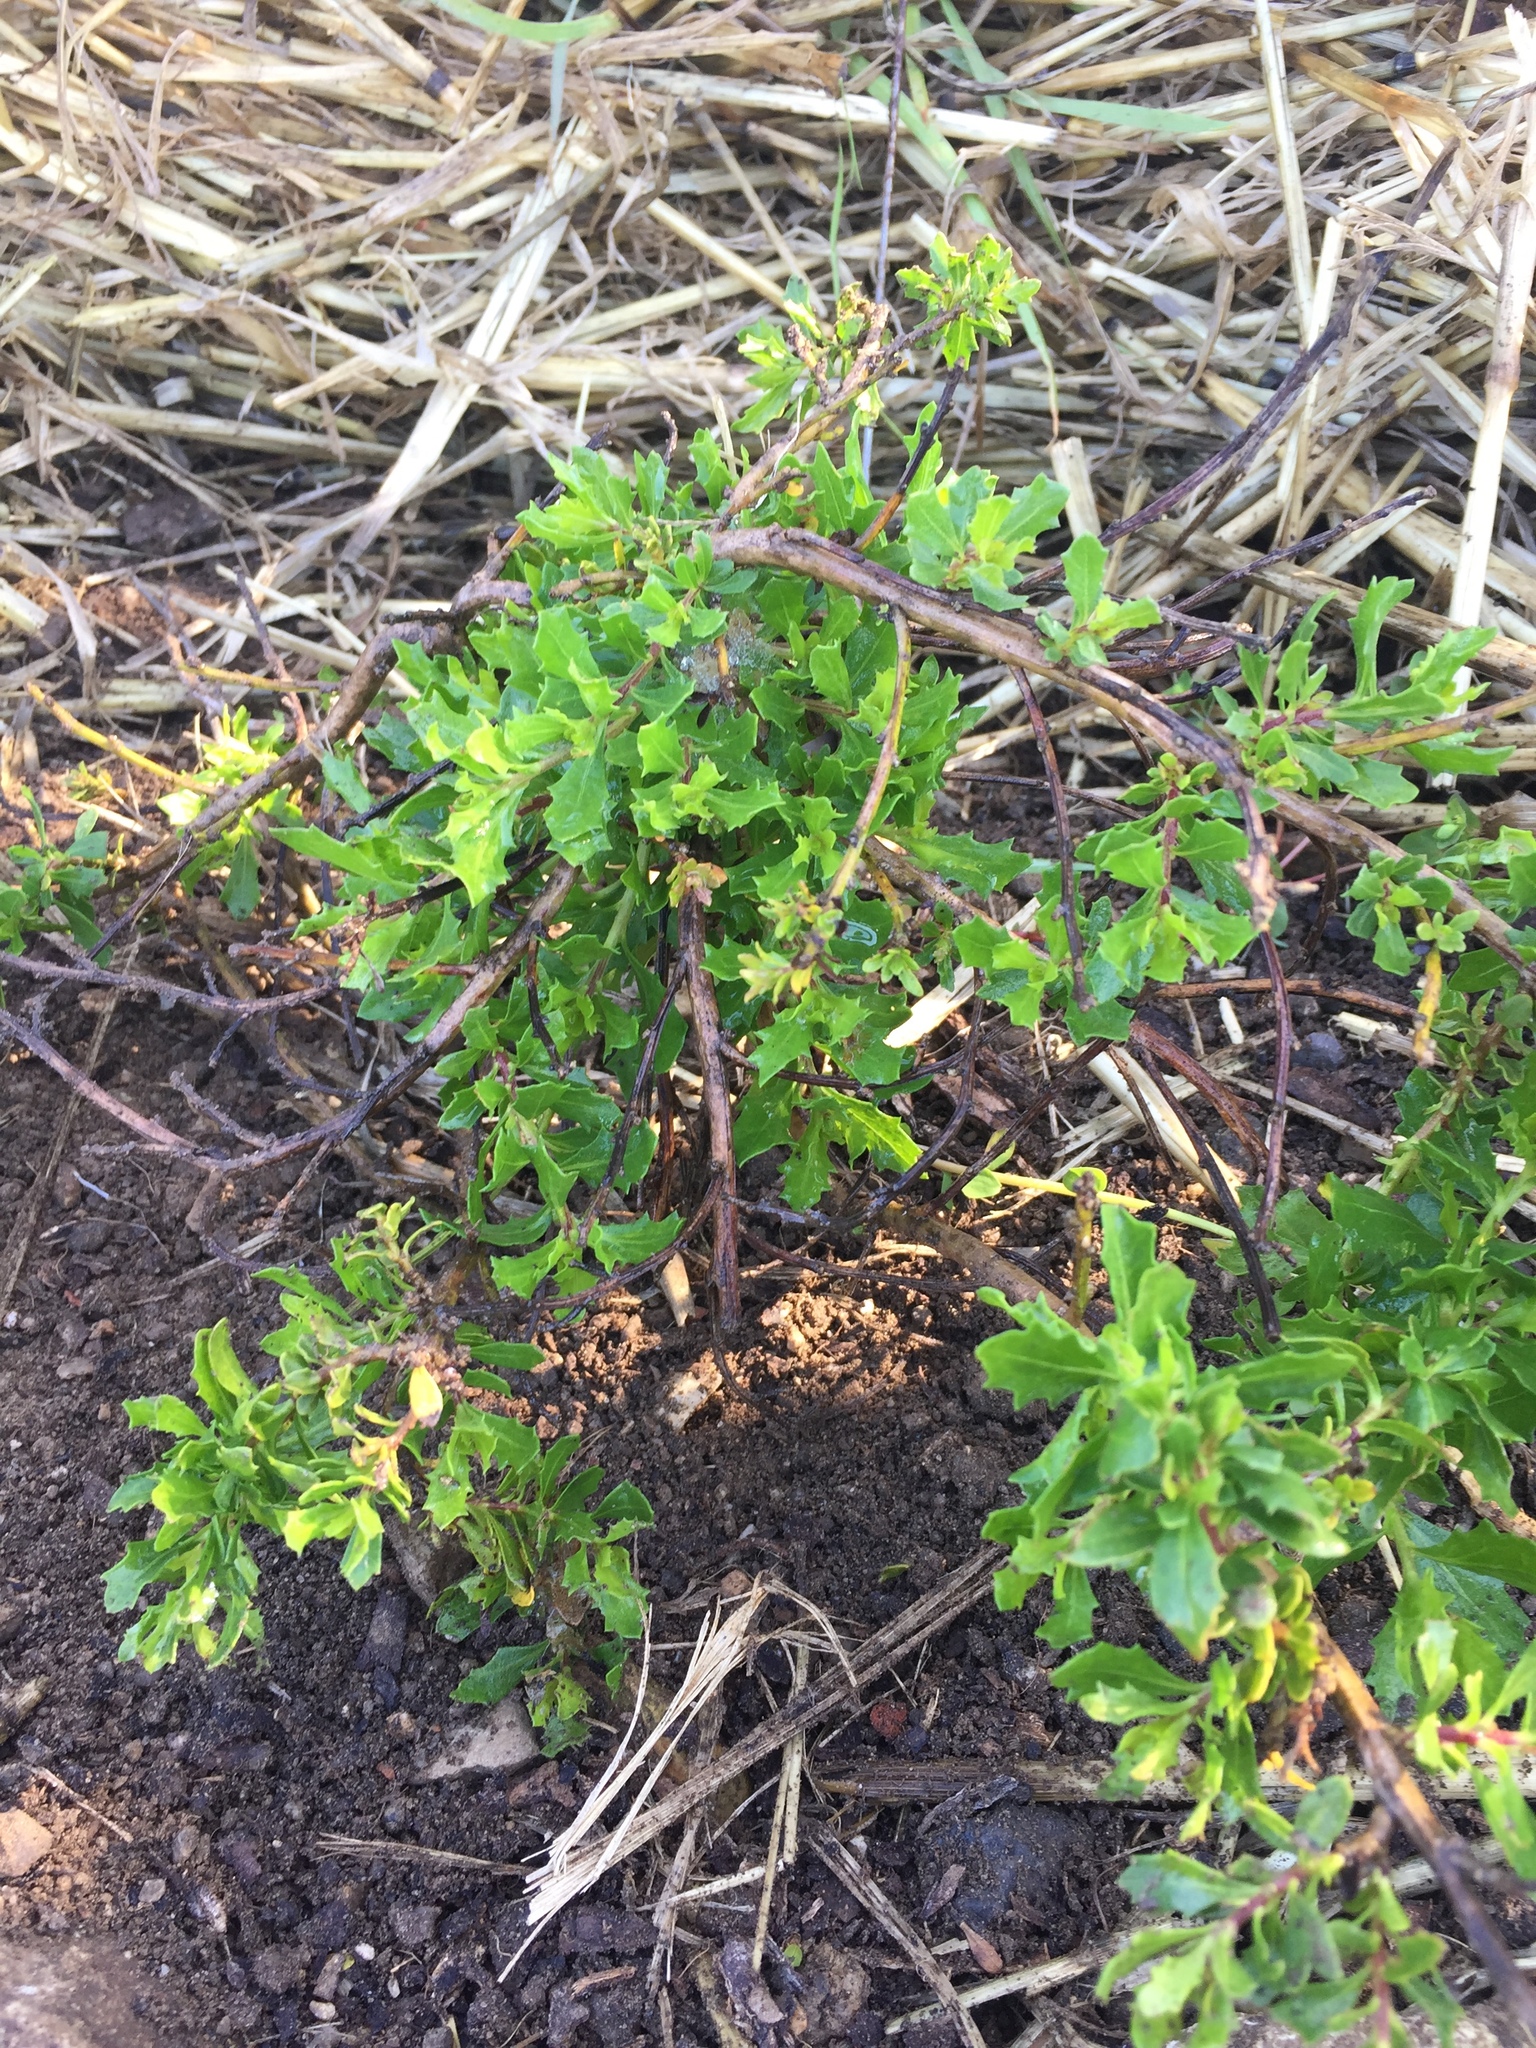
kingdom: Plantae
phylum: Tracheophyta
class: Magnoliopsida
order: Asterales
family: Asteraceae
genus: Baccharis
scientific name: Baccharis pilularis
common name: Coyotebrush
